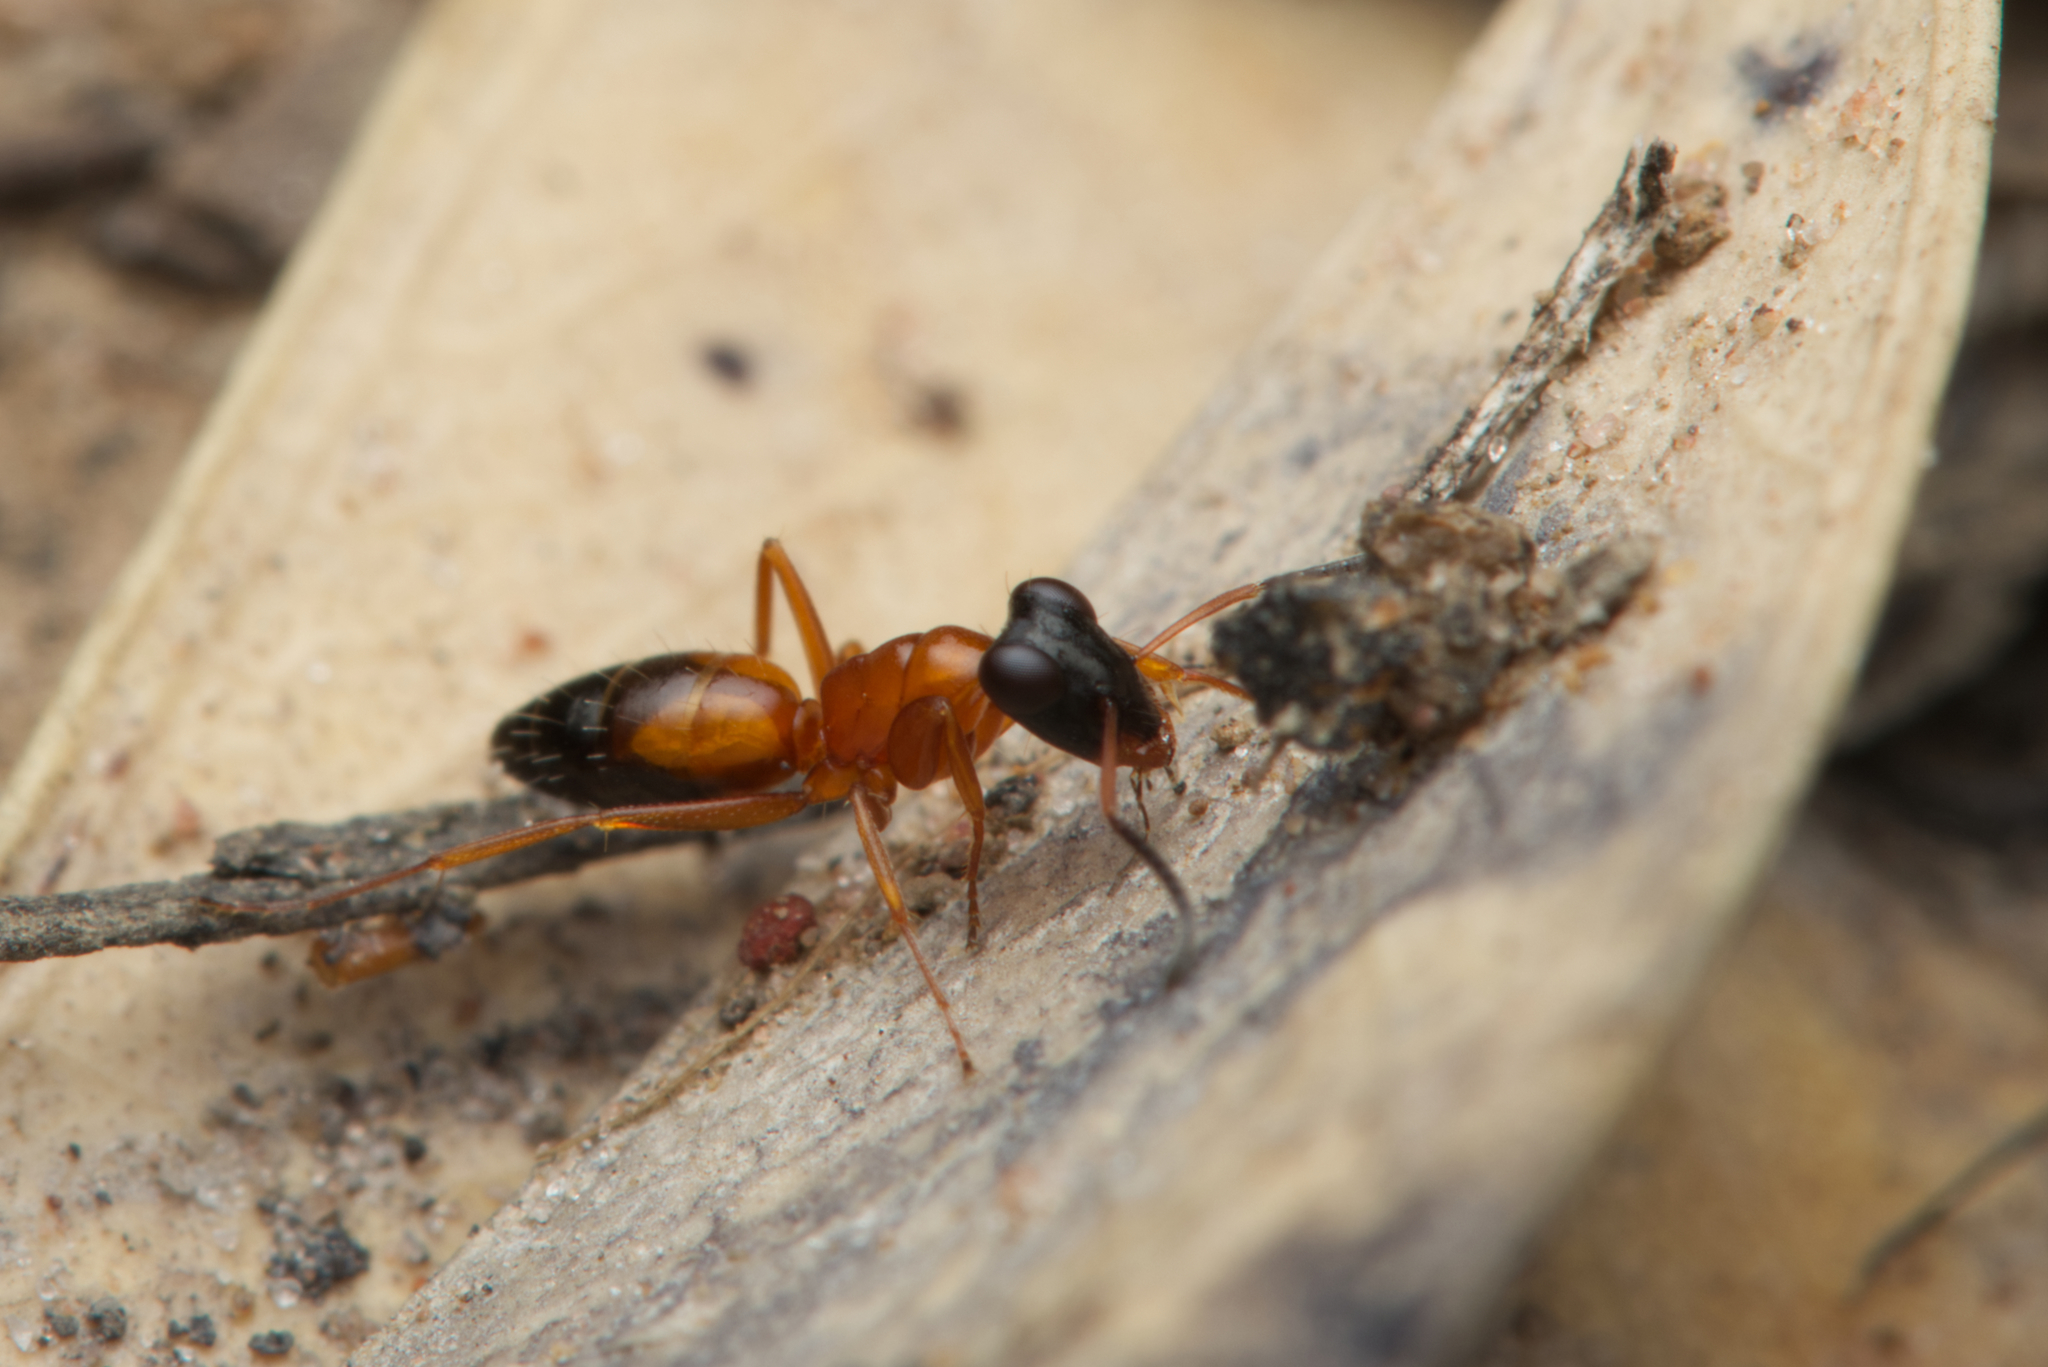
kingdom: Animalia
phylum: Arthropoda
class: Insecta
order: Hymenoptera
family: Formicidae
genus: Opisthopsis
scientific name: Opisthopsis rufithorax
